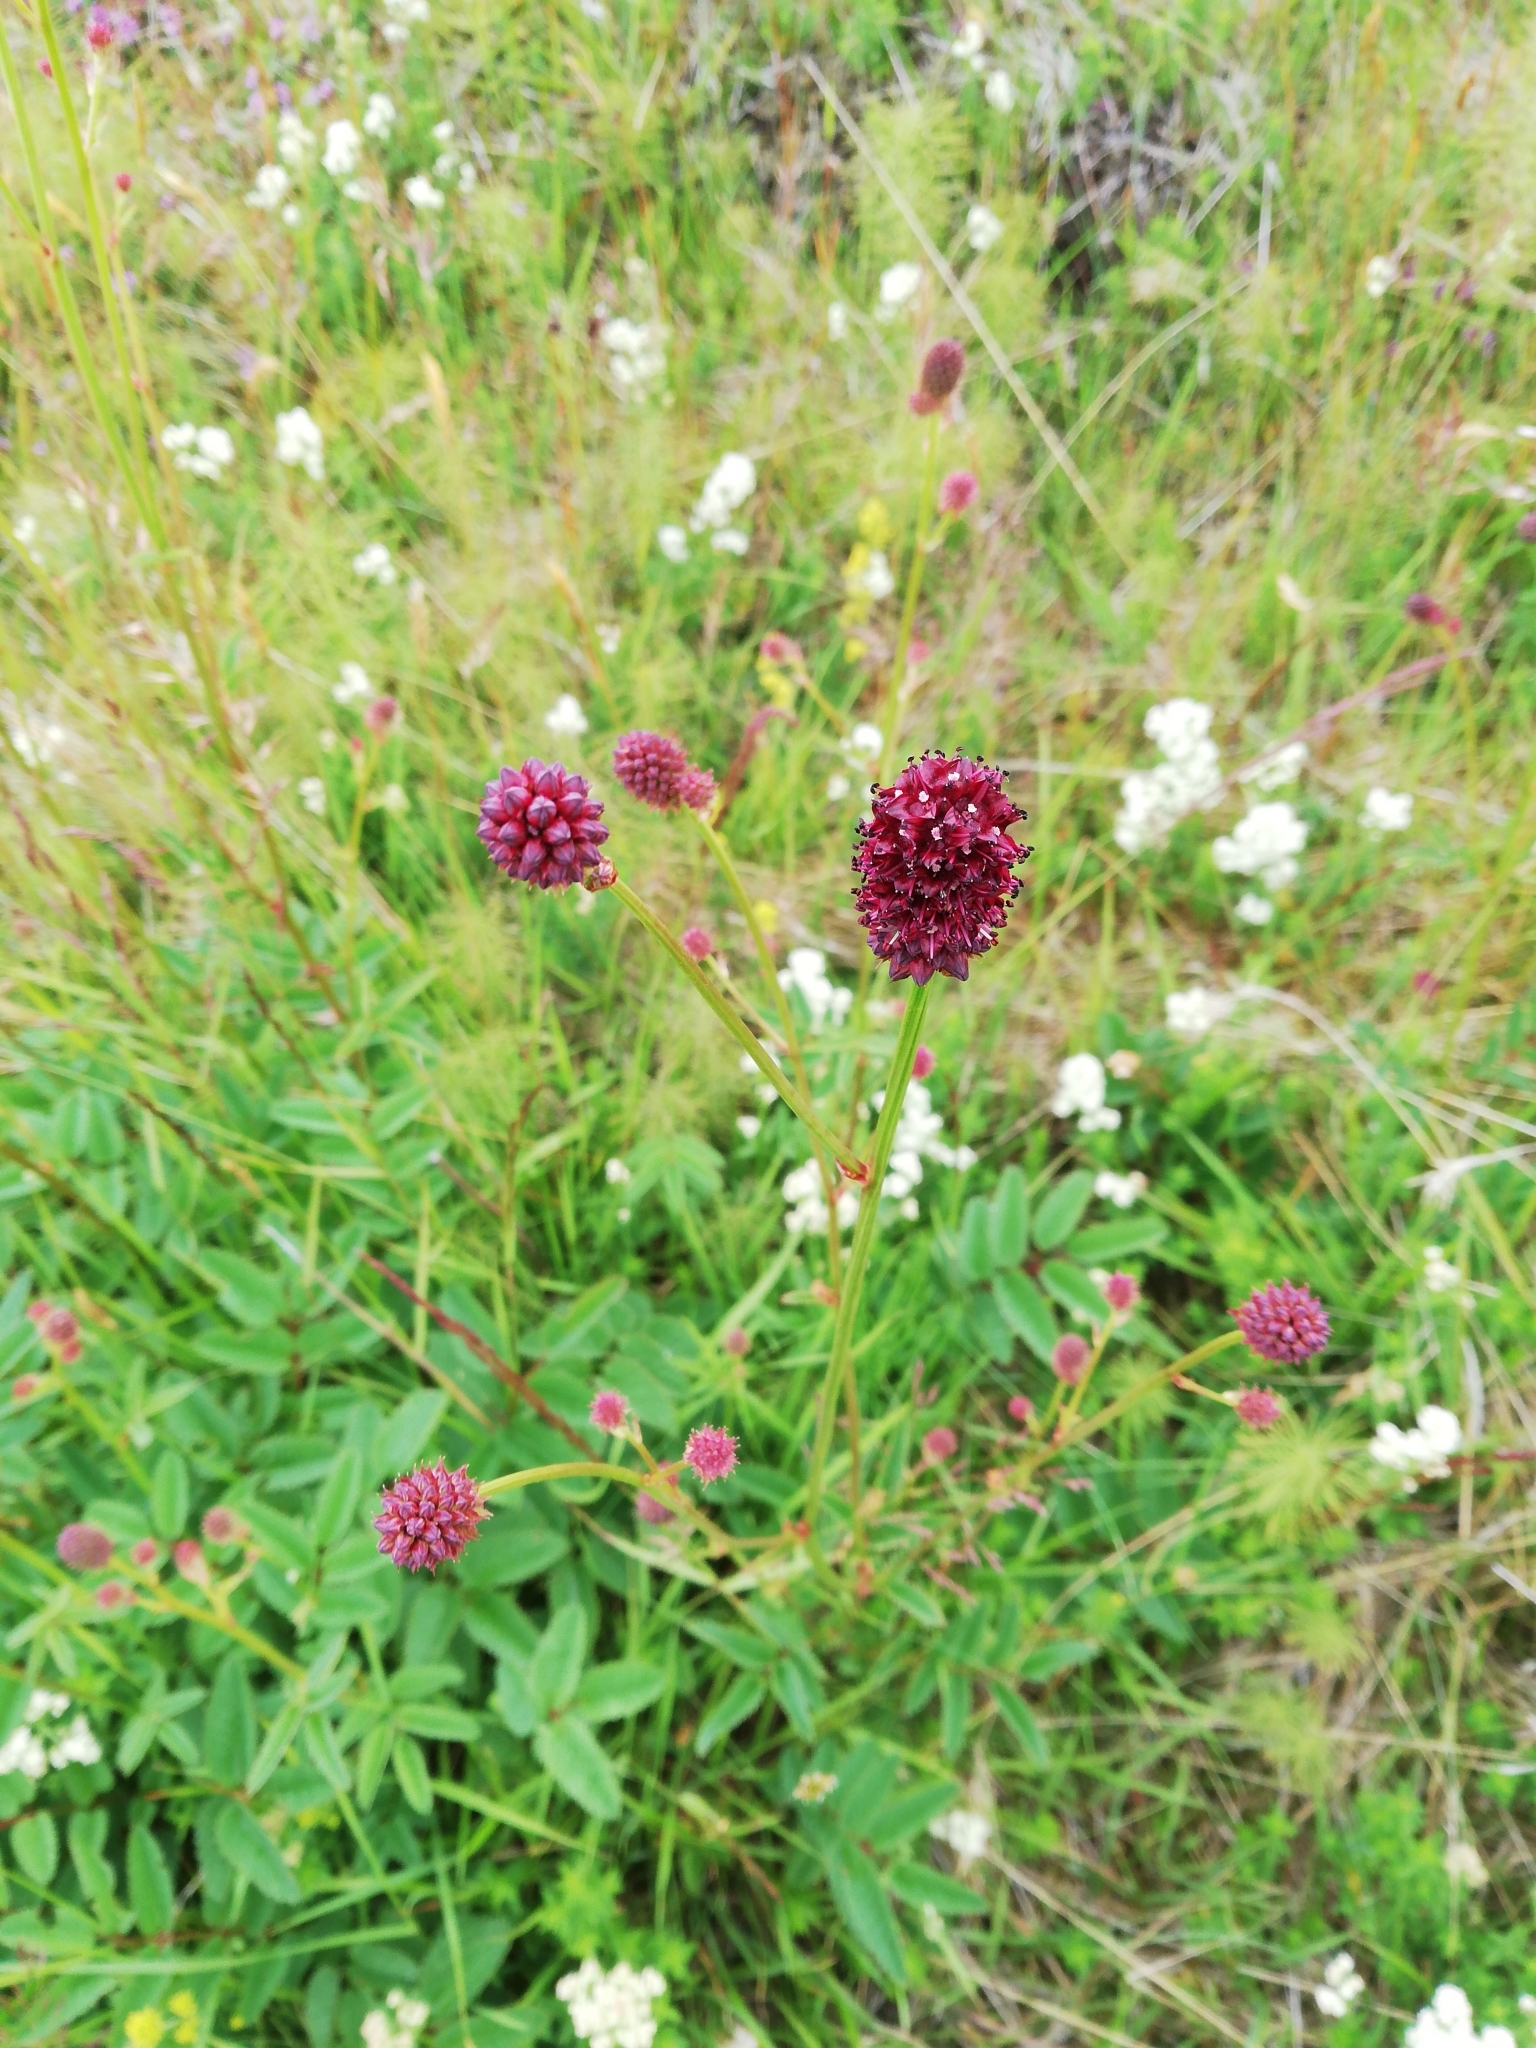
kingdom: Plantae
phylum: Tracheophyta
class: Magnoliopsida
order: Rosales
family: Rosaceae
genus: Sanguisorba
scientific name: Sanguisorba officinalis
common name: Great burnet
